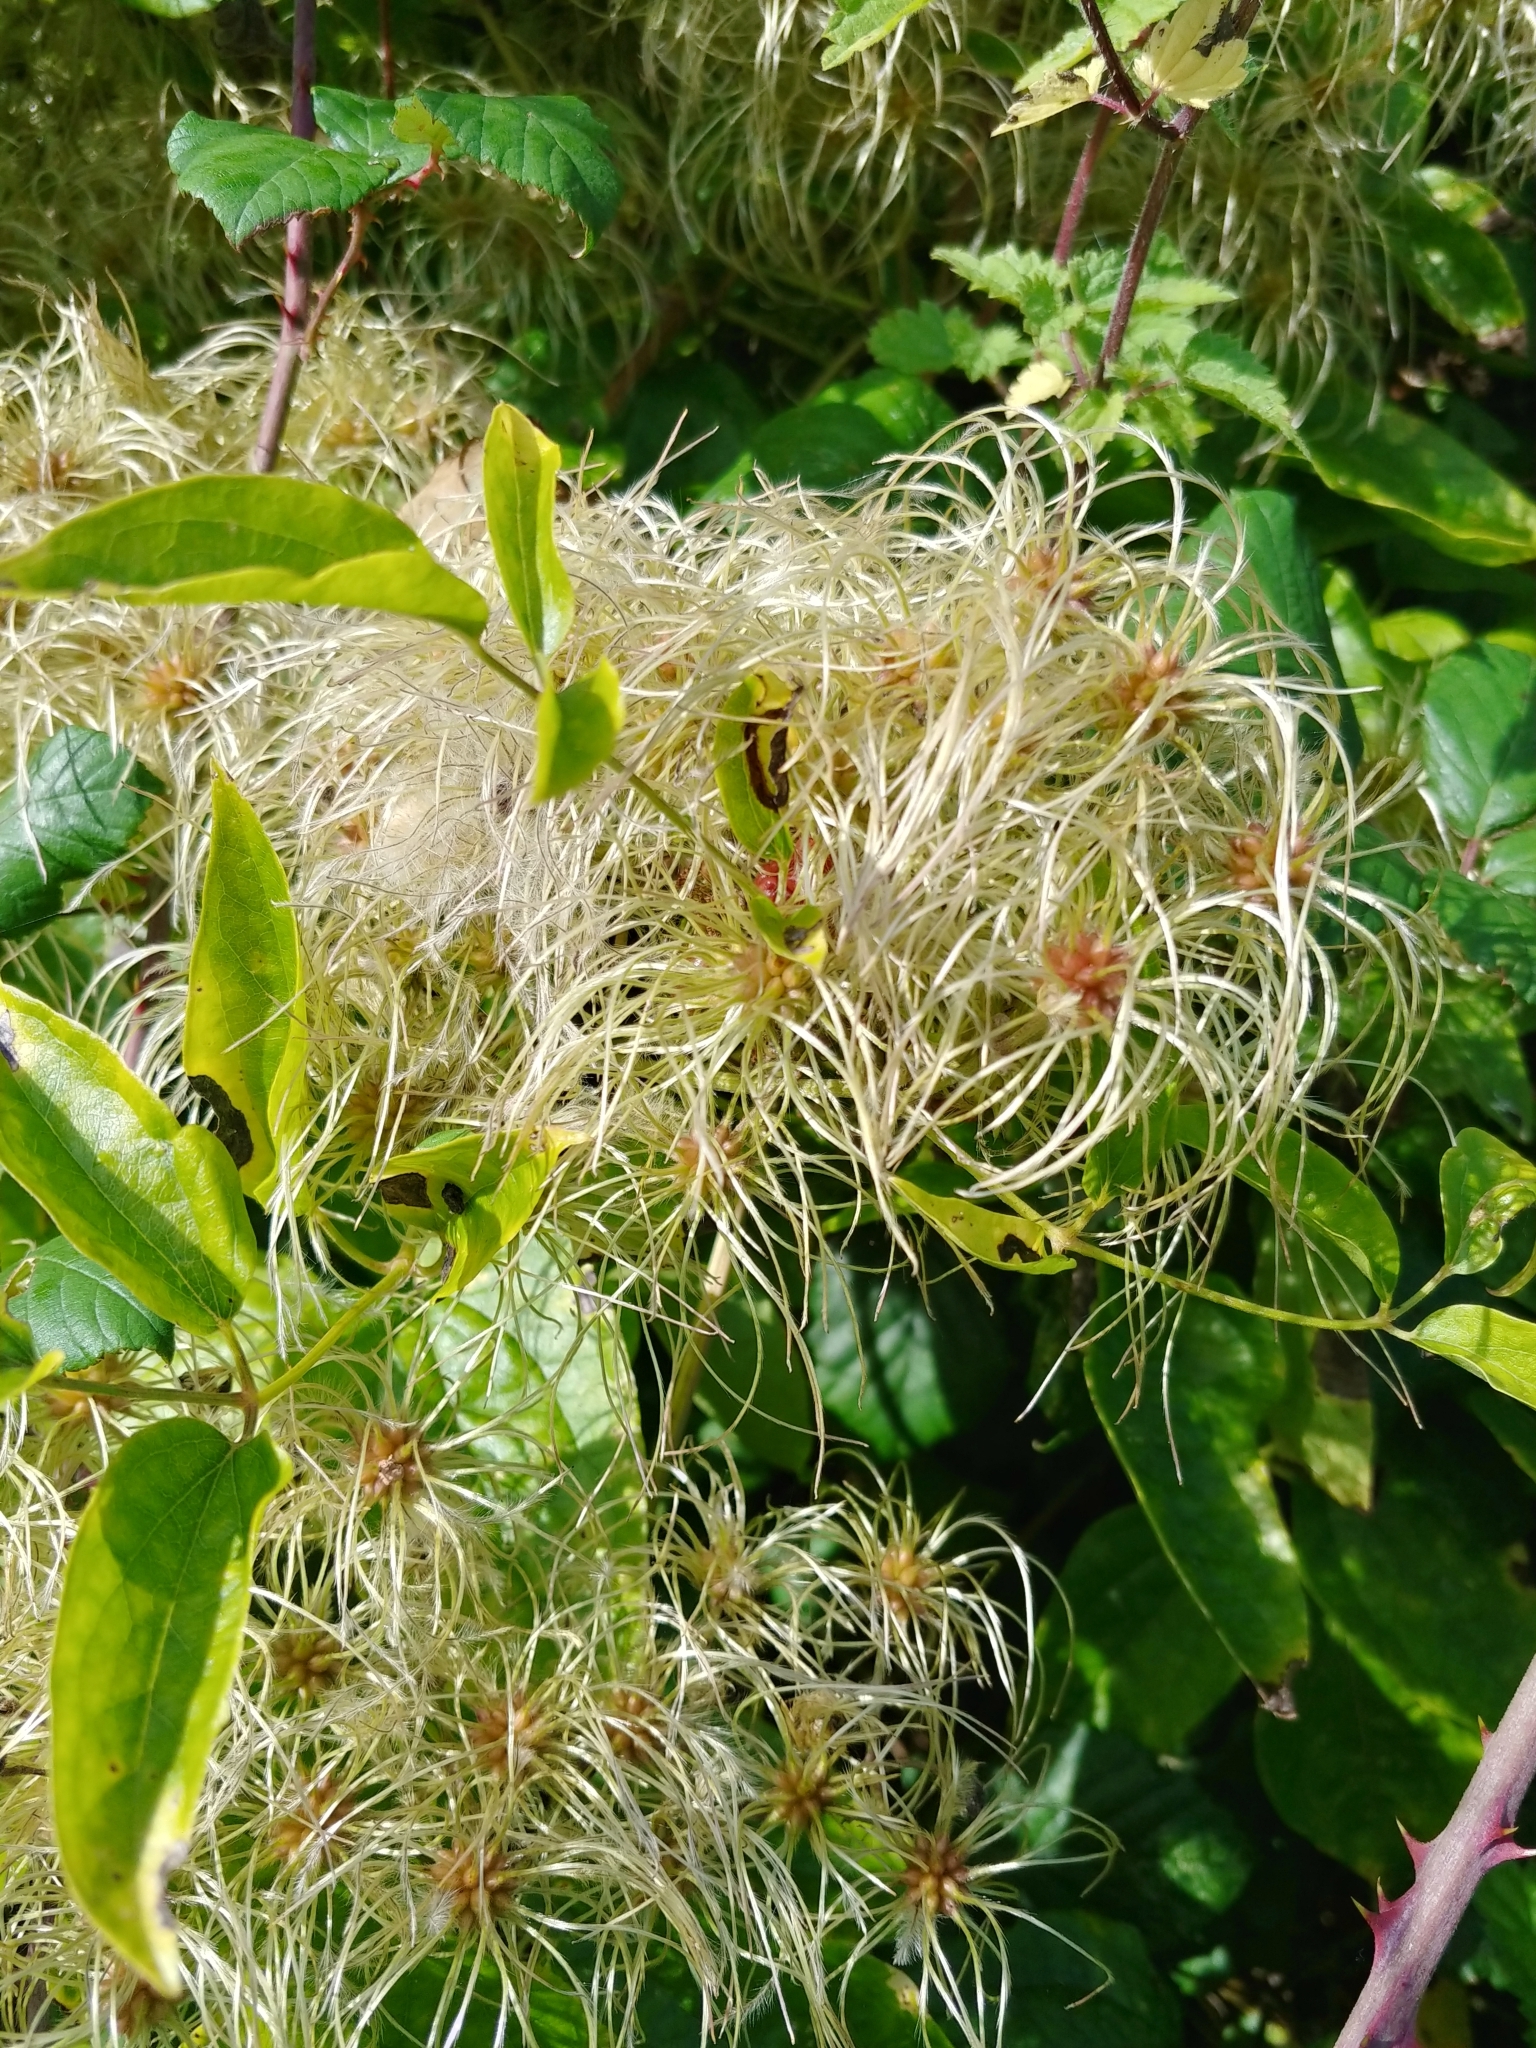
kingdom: Plantae
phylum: Tracheophyta
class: Magnoliopsida
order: Ranunculales
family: Ranunculaceae
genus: Clematis
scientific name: Clematis vitalba
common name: Evergreen clematis
